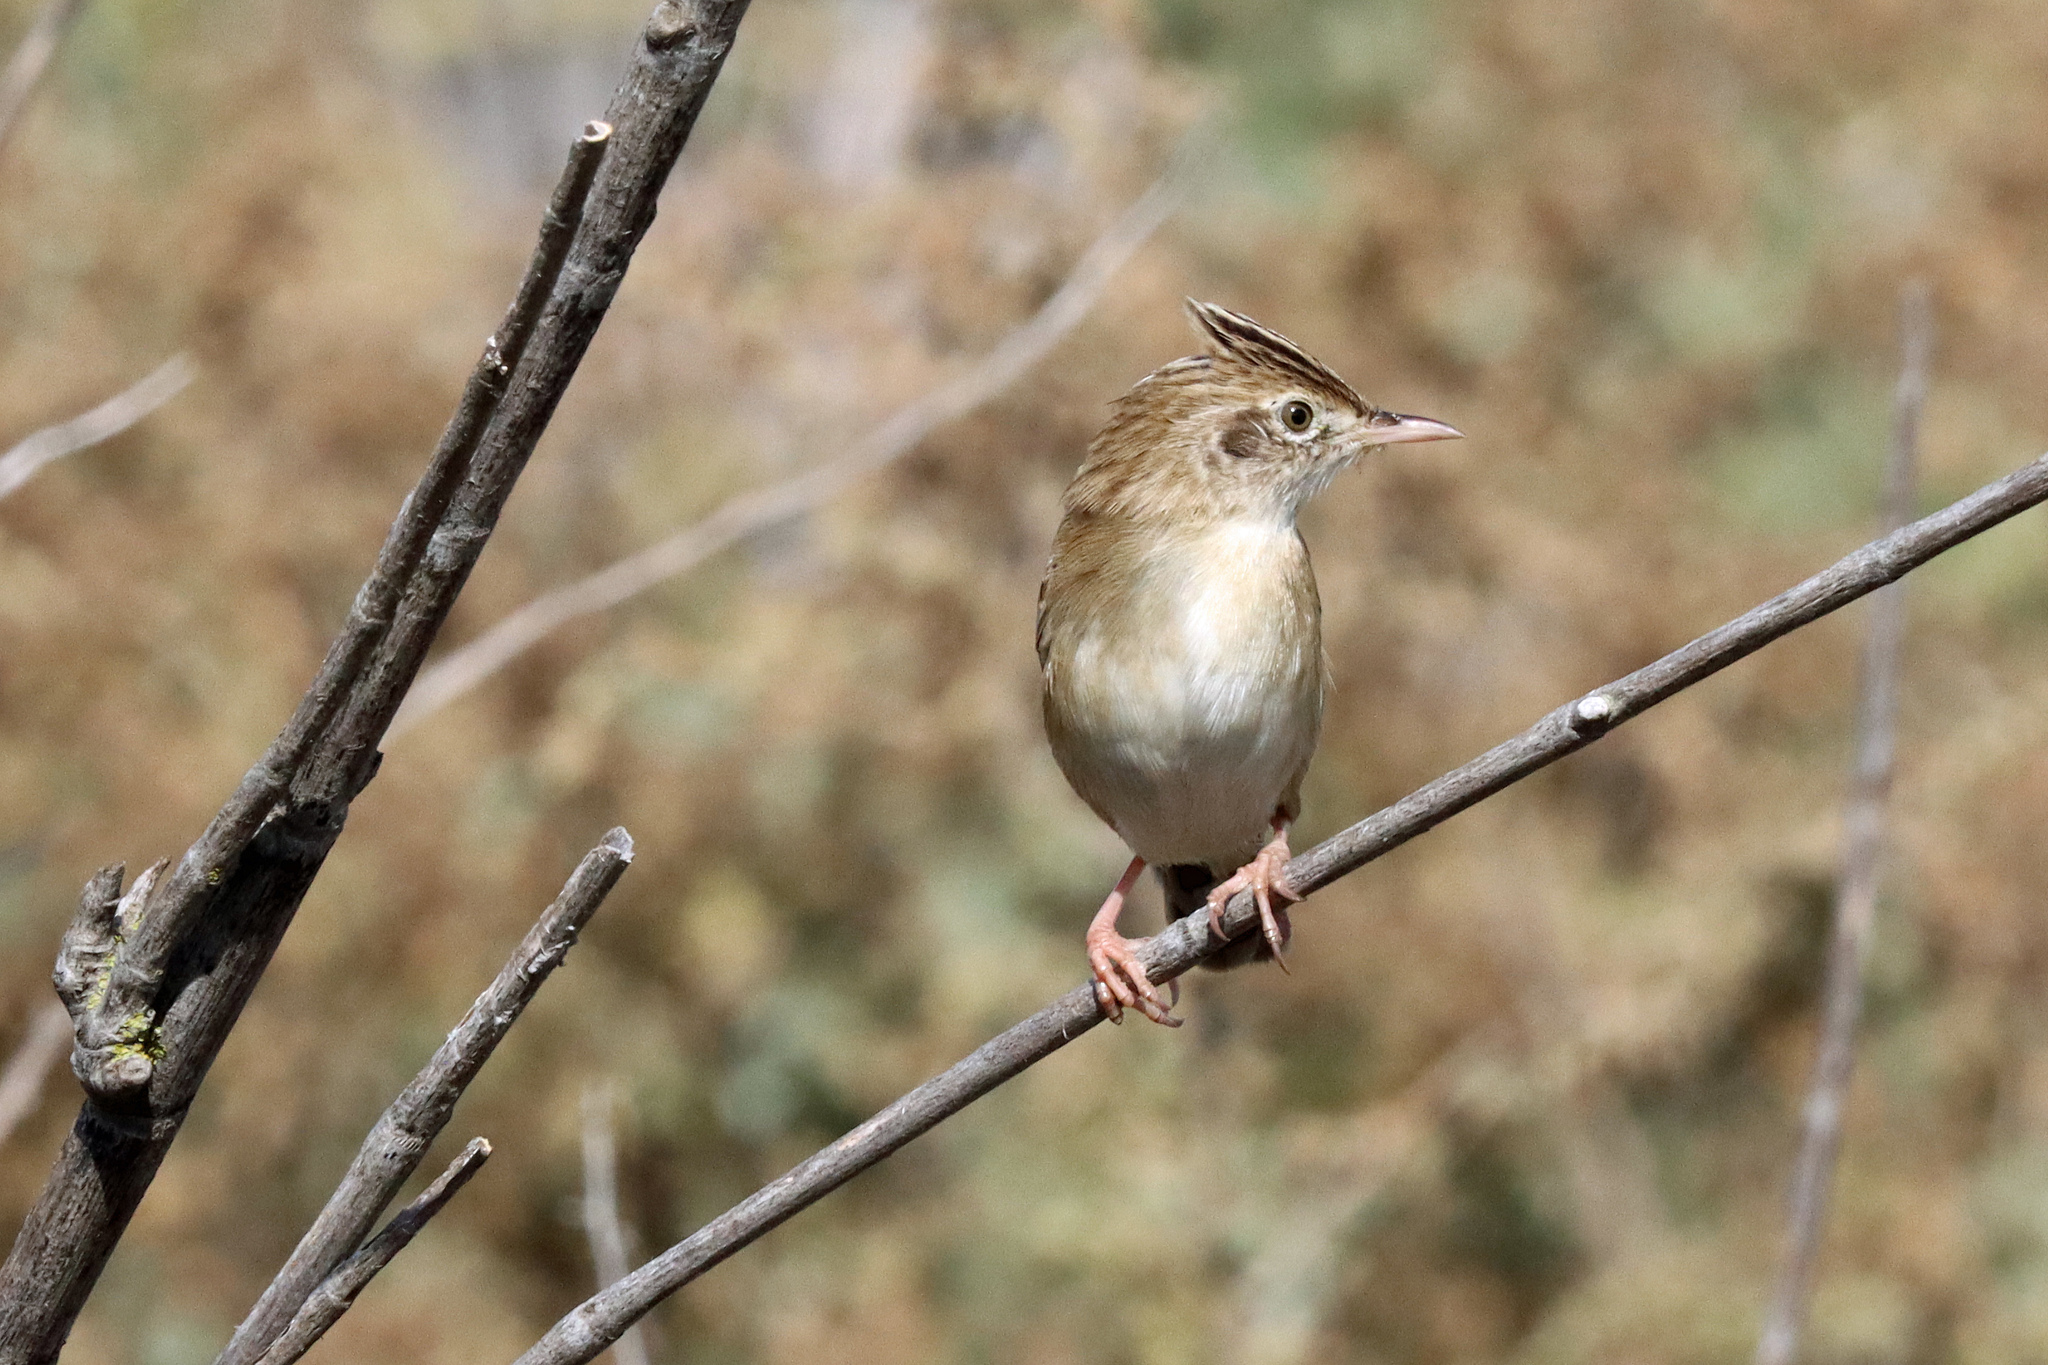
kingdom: Animalia
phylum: Chordata
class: Aves
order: Passeriformes
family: Cisticolidae
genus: Cisticola
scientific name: Cisticola juncidis
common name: Zitting cisticola
